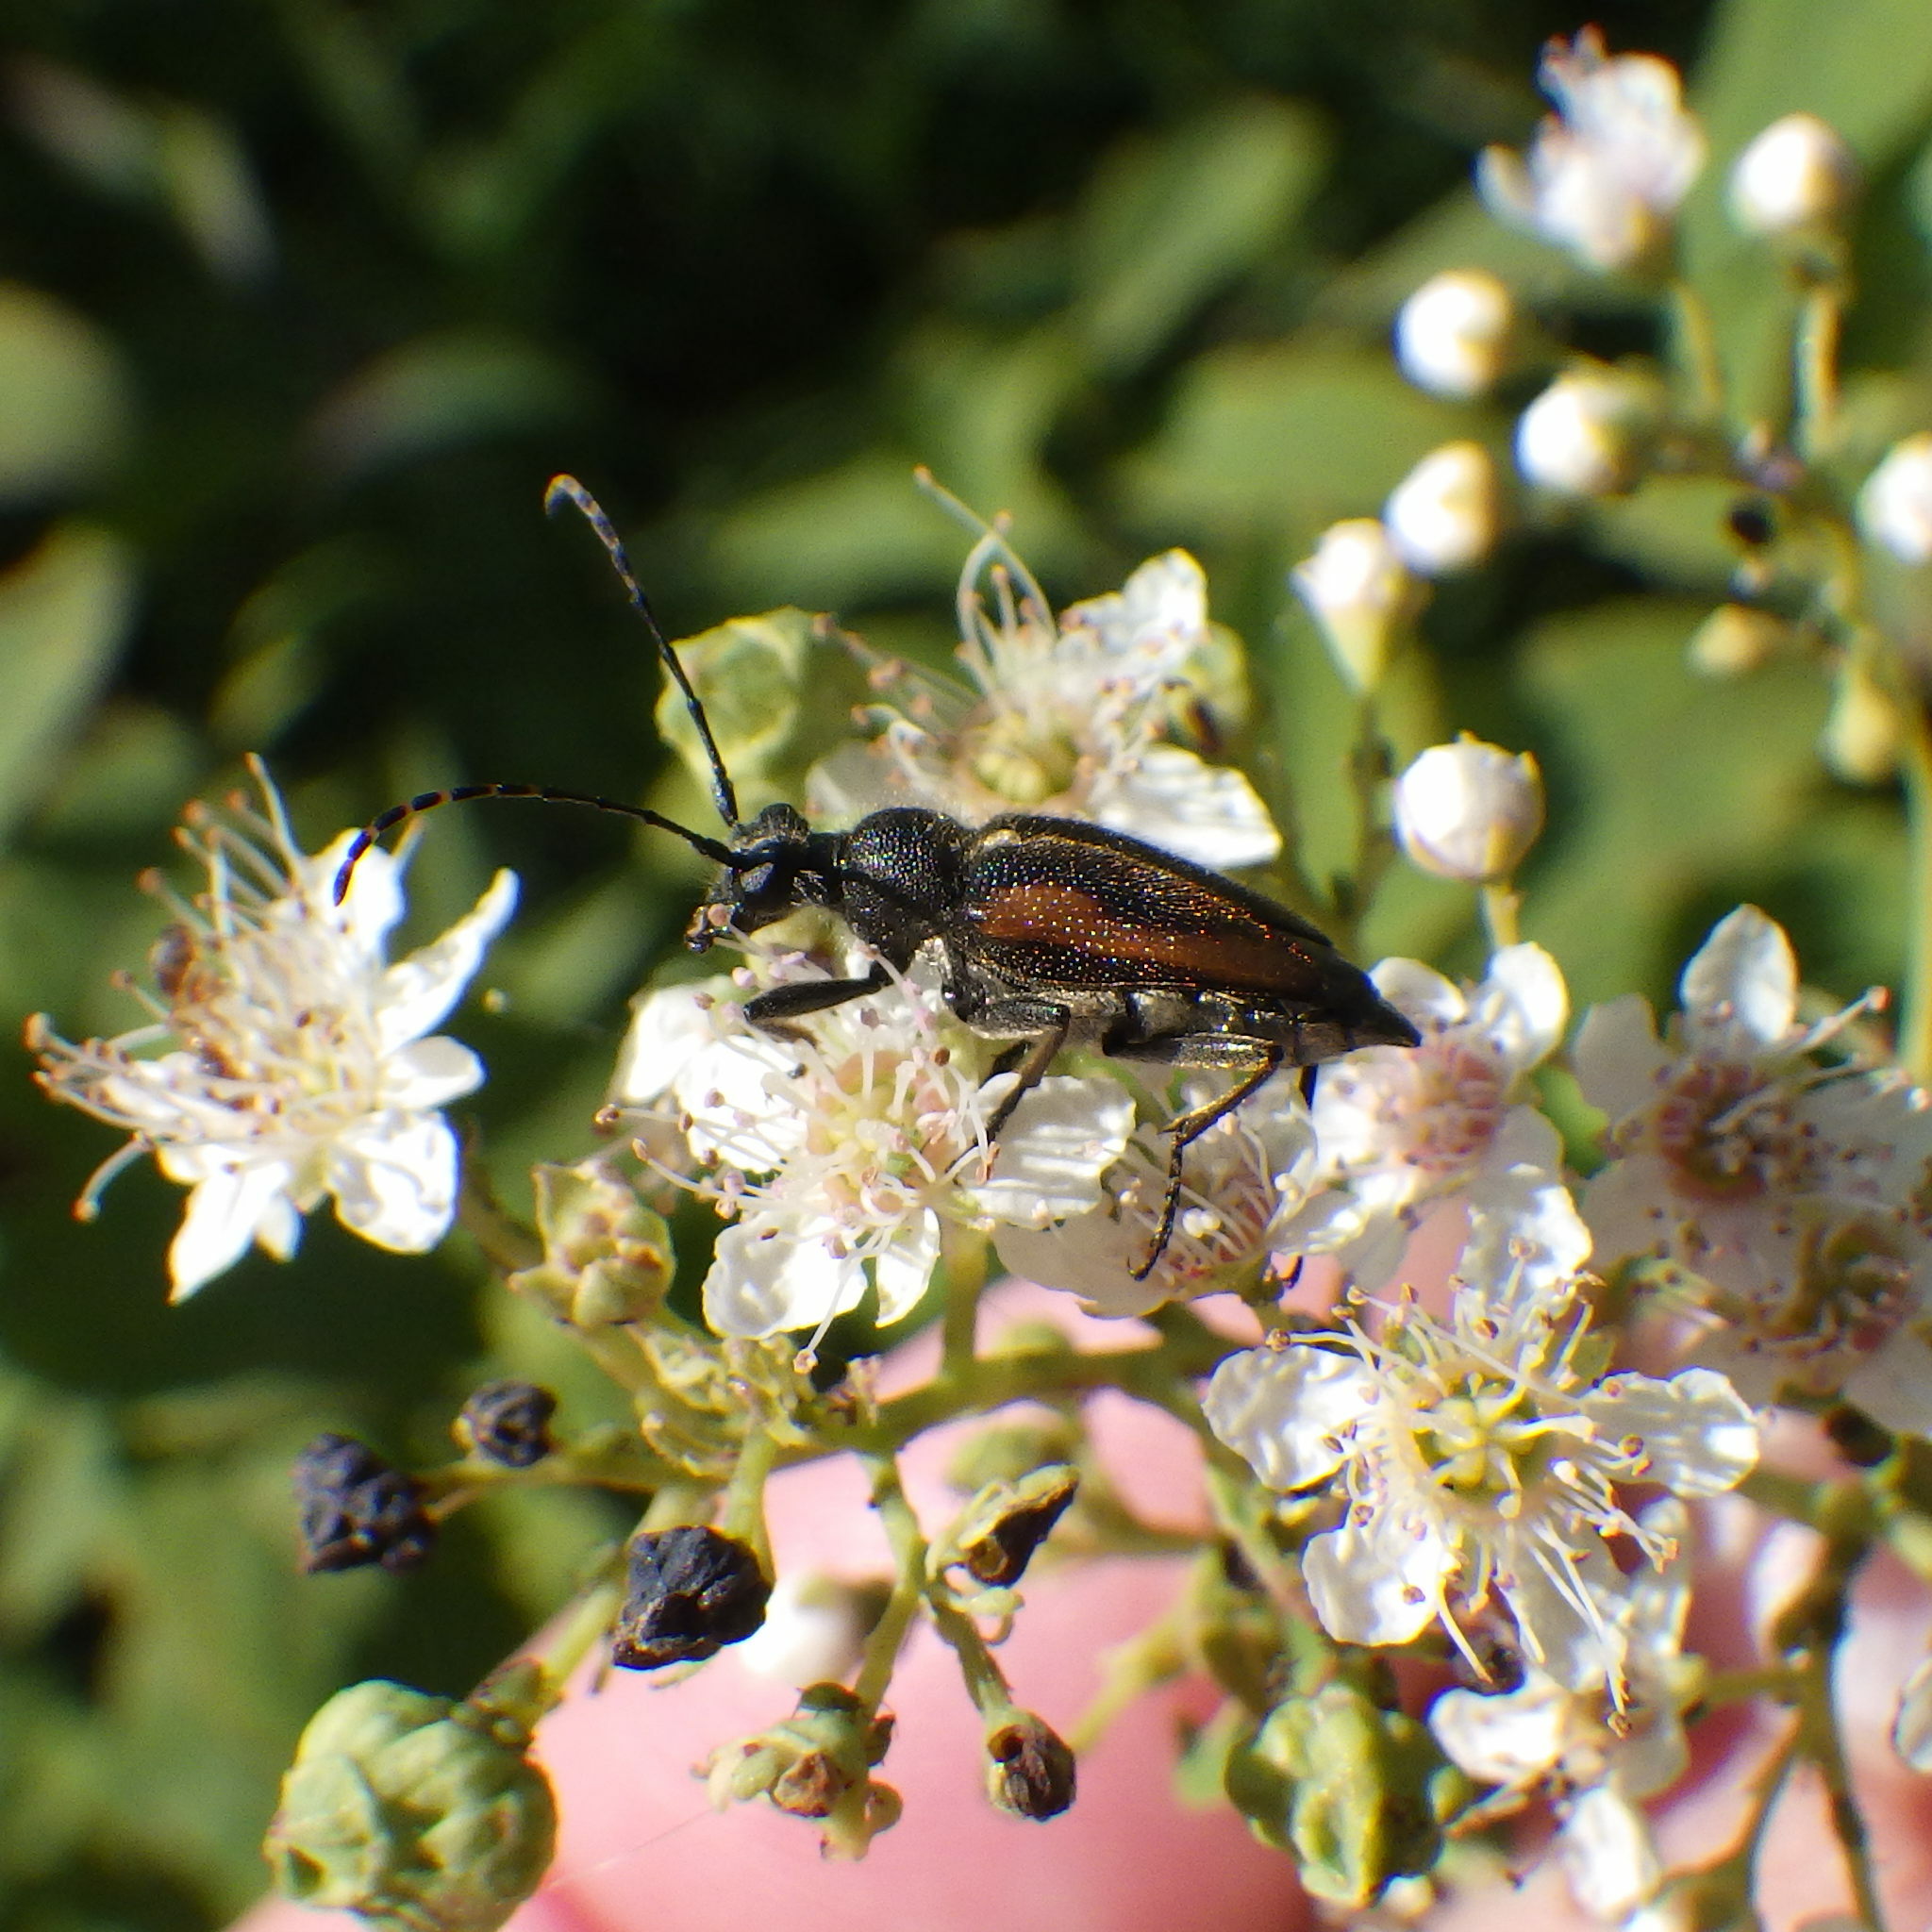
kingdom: Animalia
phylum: Arthropoda
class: Insecta
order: Coleoptera
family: Cerambycidae
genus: Brachyleptura
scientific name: Brachyleptura vagans
